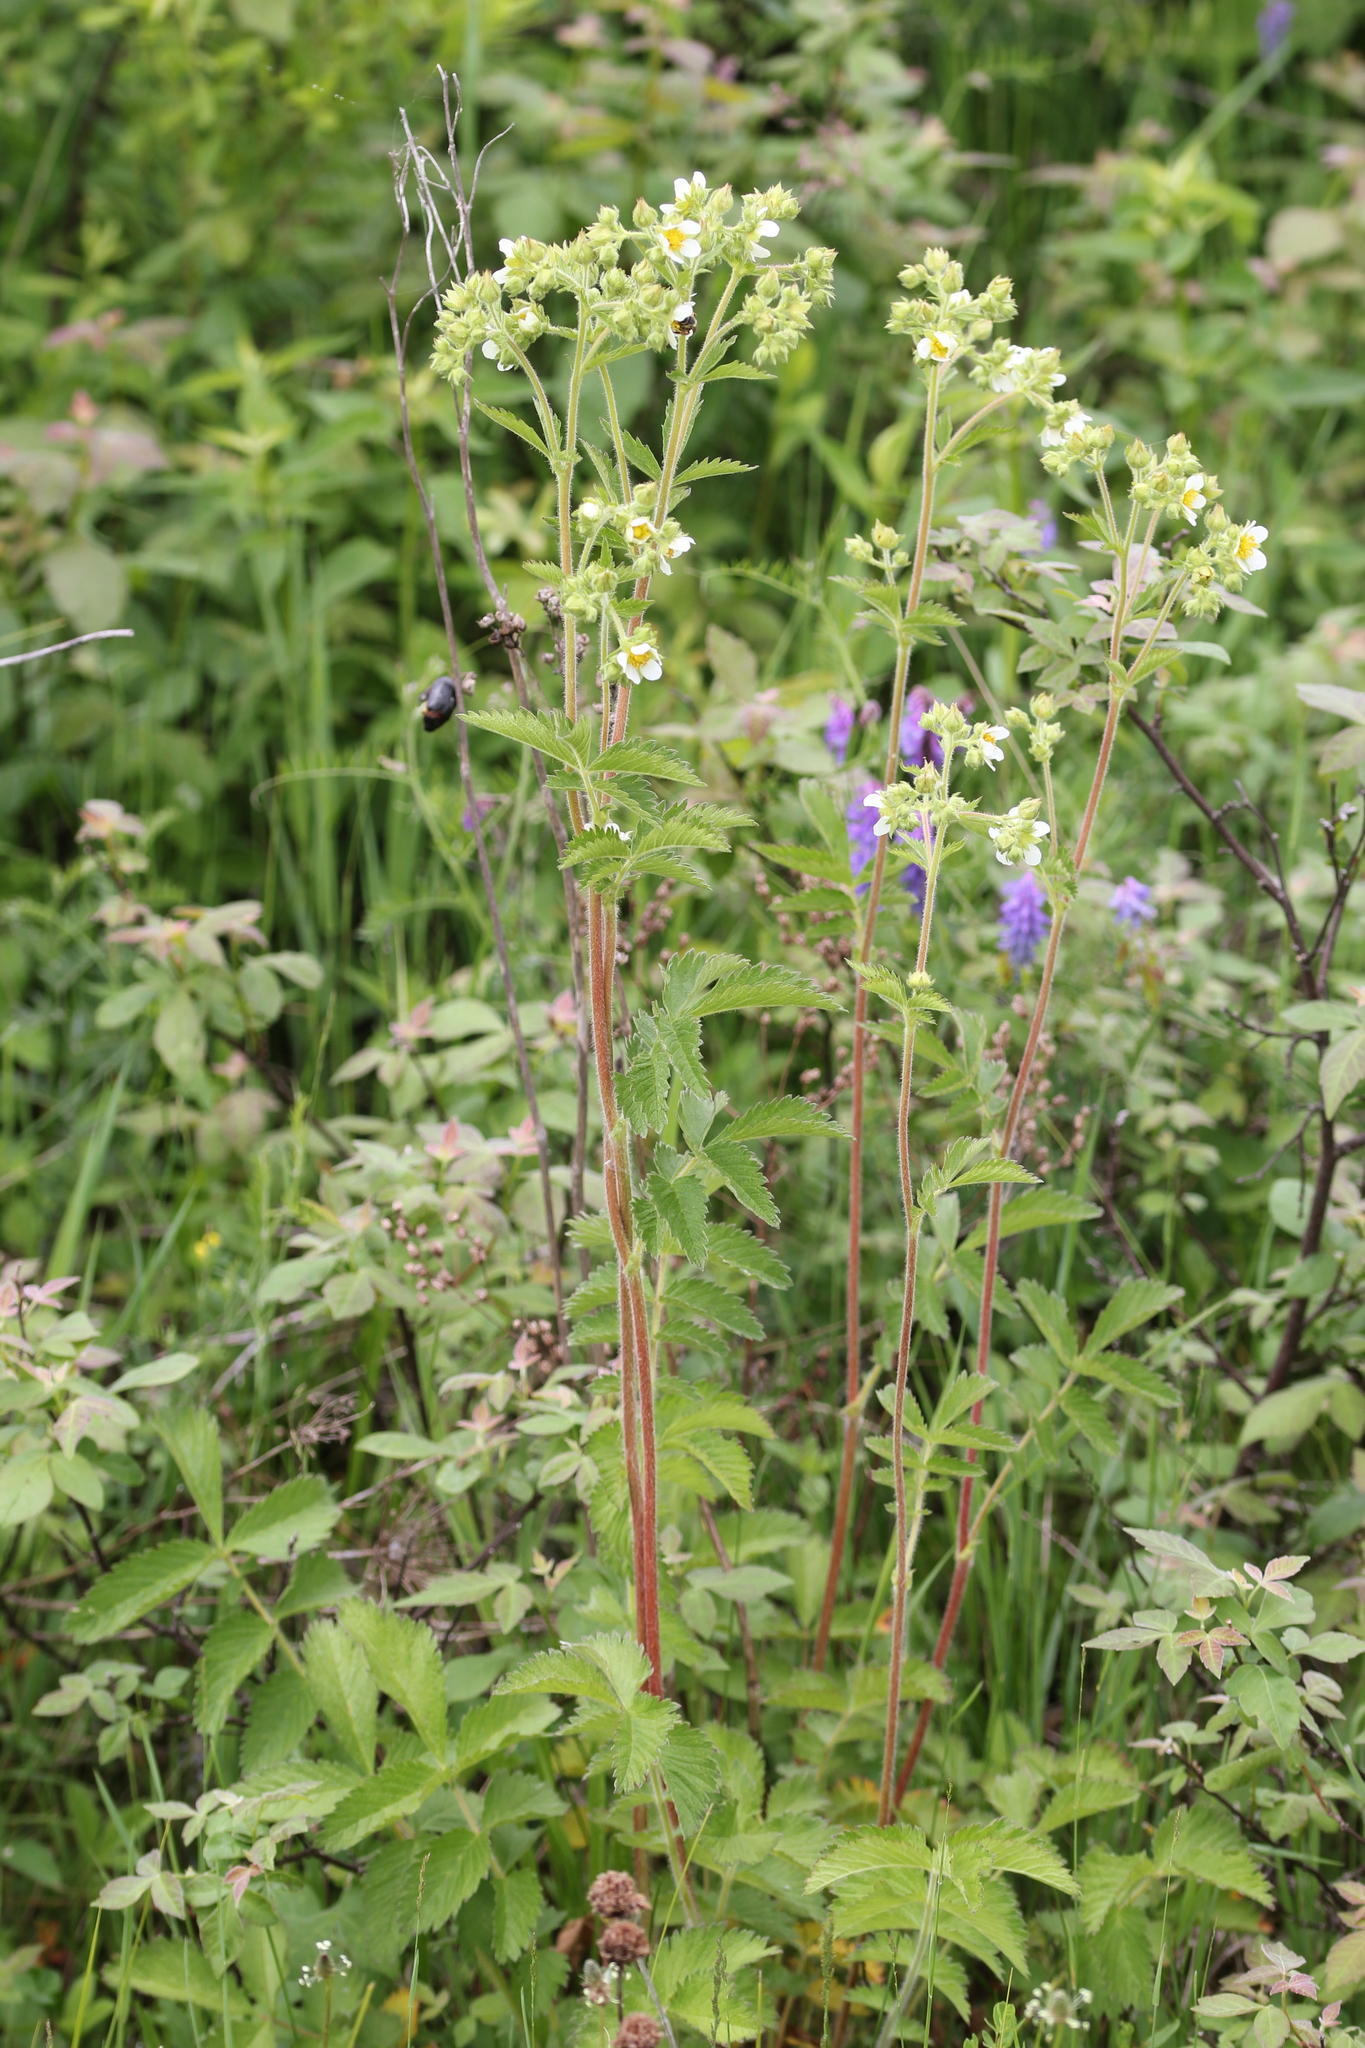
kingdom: Plantae
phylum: Tracheophyta
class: Magnoliopsida
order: Rosales
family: Rosaceae
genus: Drymocallis
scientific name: Drymocallis arguta
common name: Tall cinquefoil
